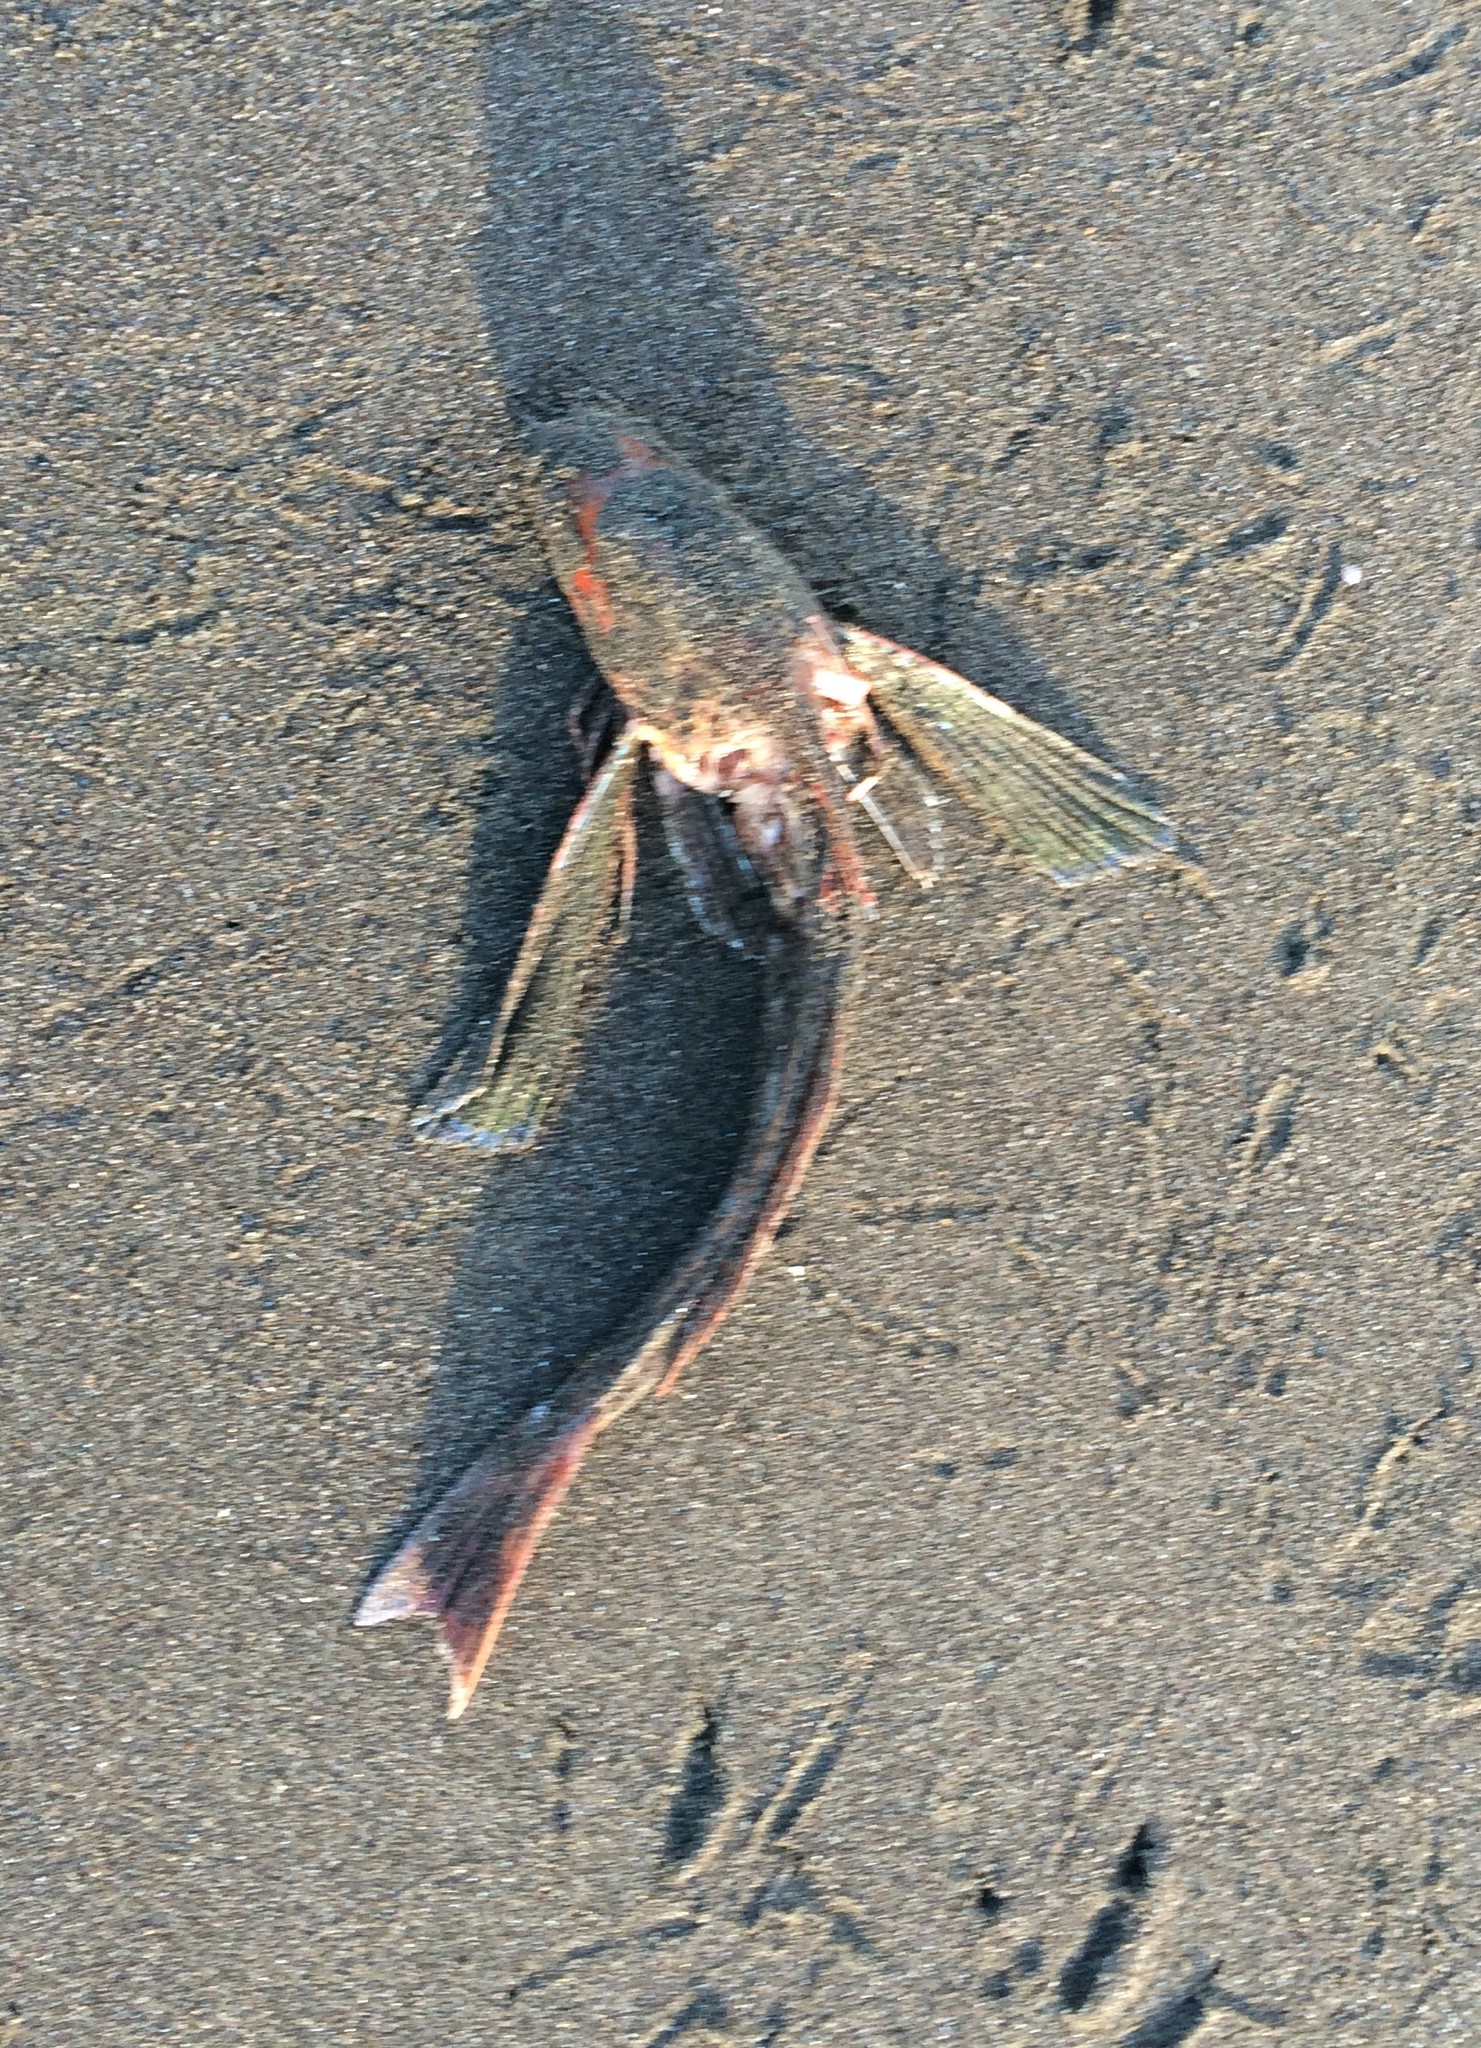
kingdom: Animalia
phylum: Chordata
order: Scorpaeniformes
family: Triglidae
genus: Chelidonichthys
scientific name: Chelidonichthys kumu
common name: Bluefin gurnard
